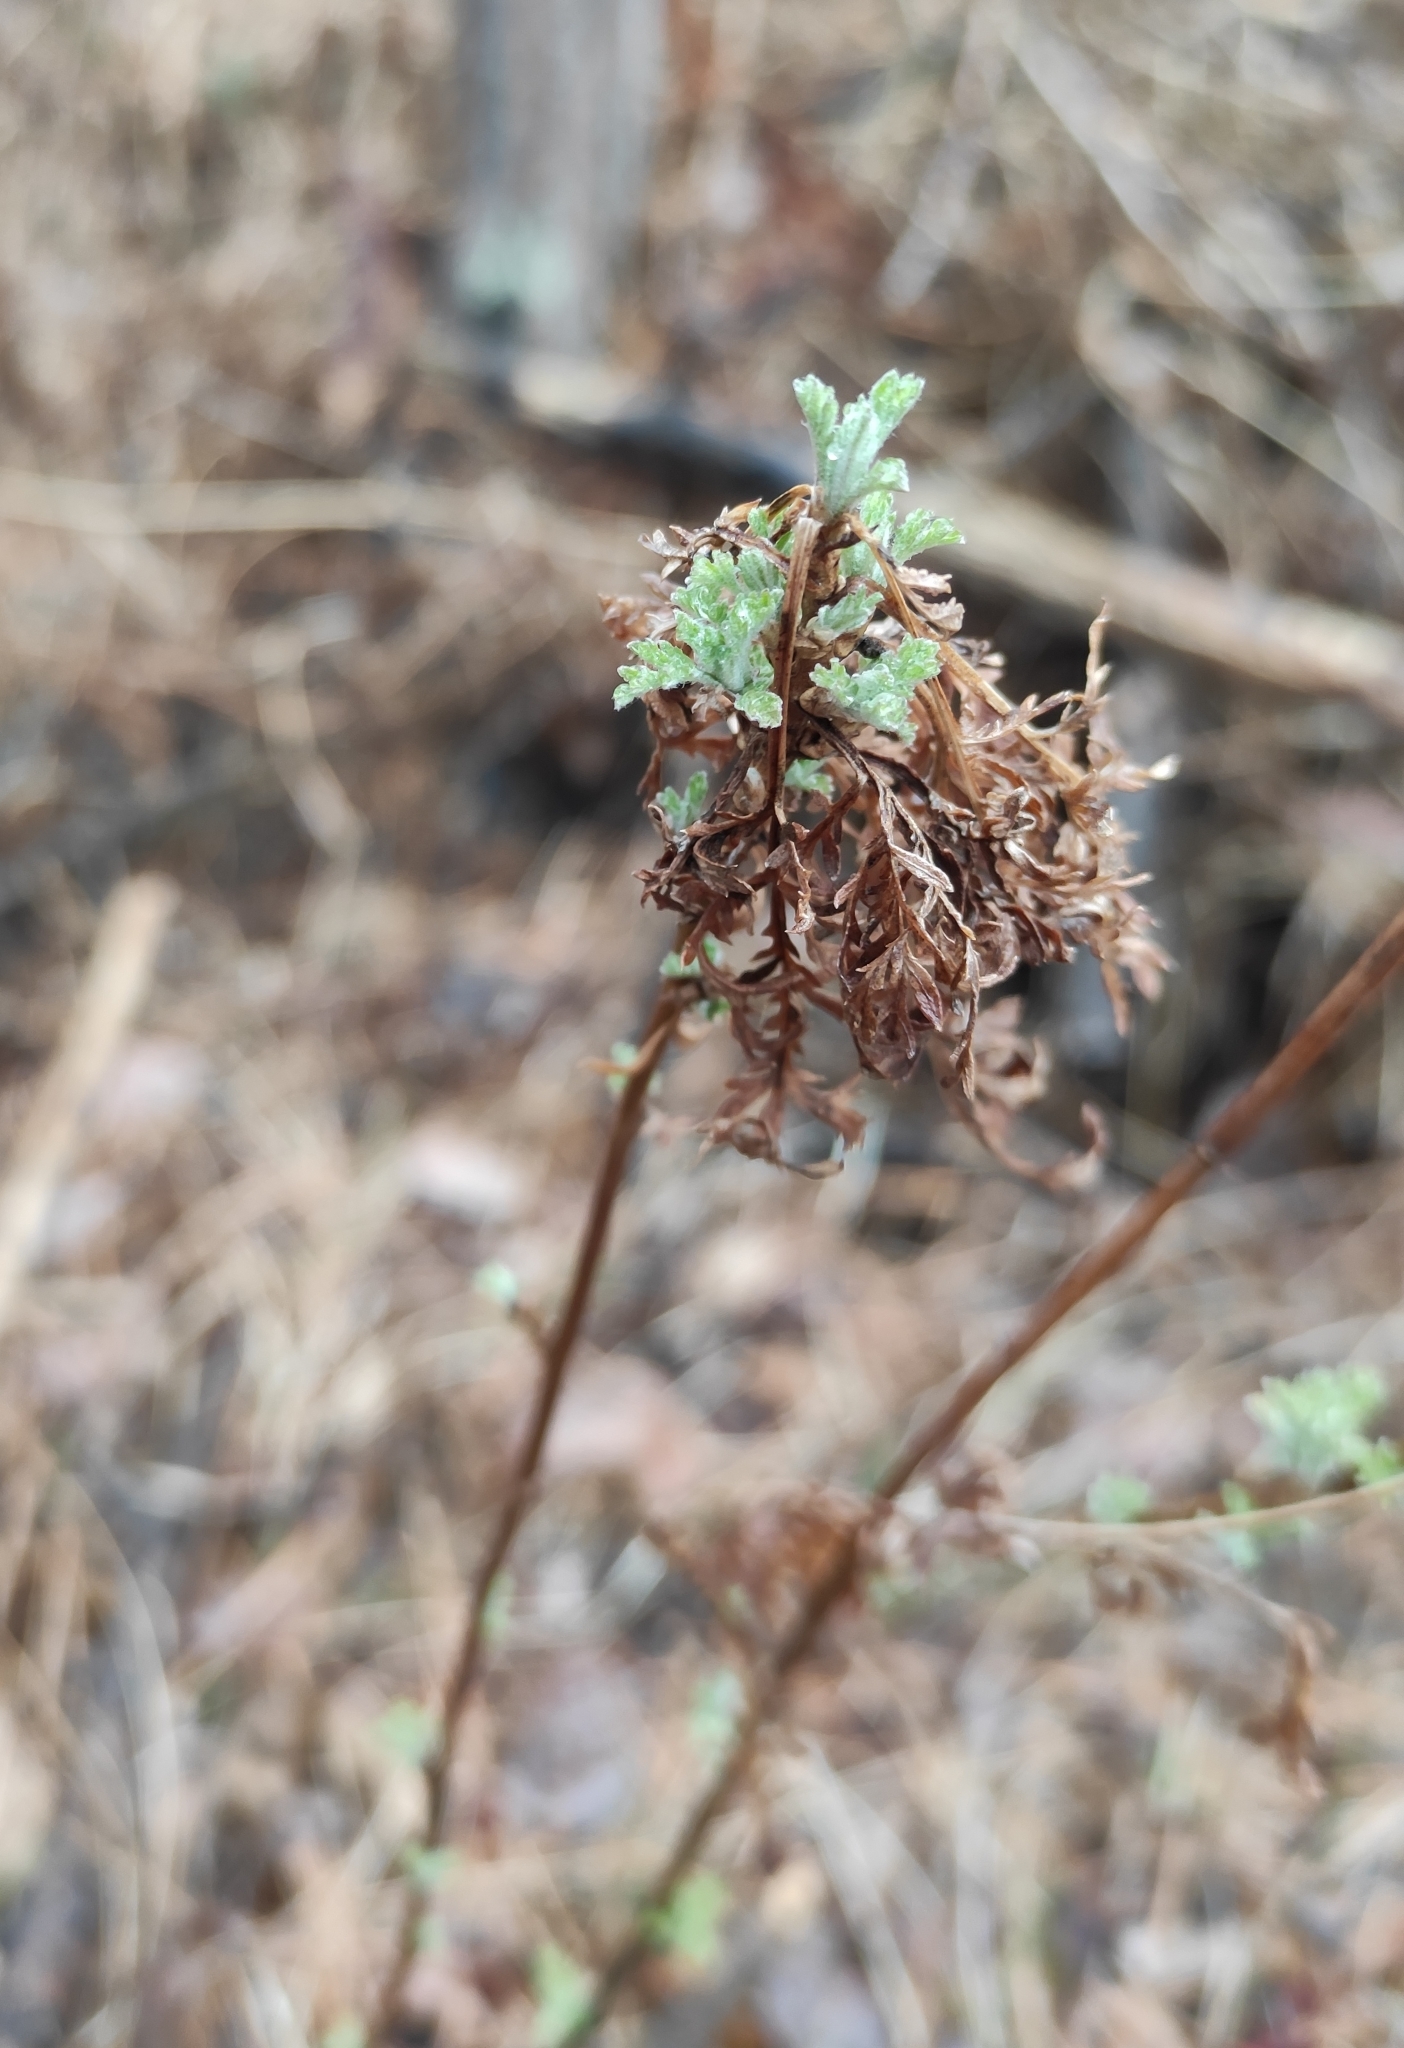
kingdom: Plantae
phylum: Tracheophyta
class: Magnoliopsida
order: Asterales
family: Asteraceae
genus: Artemisia
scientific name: Artemisia gmelinii
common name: Gmelin's wormwood
